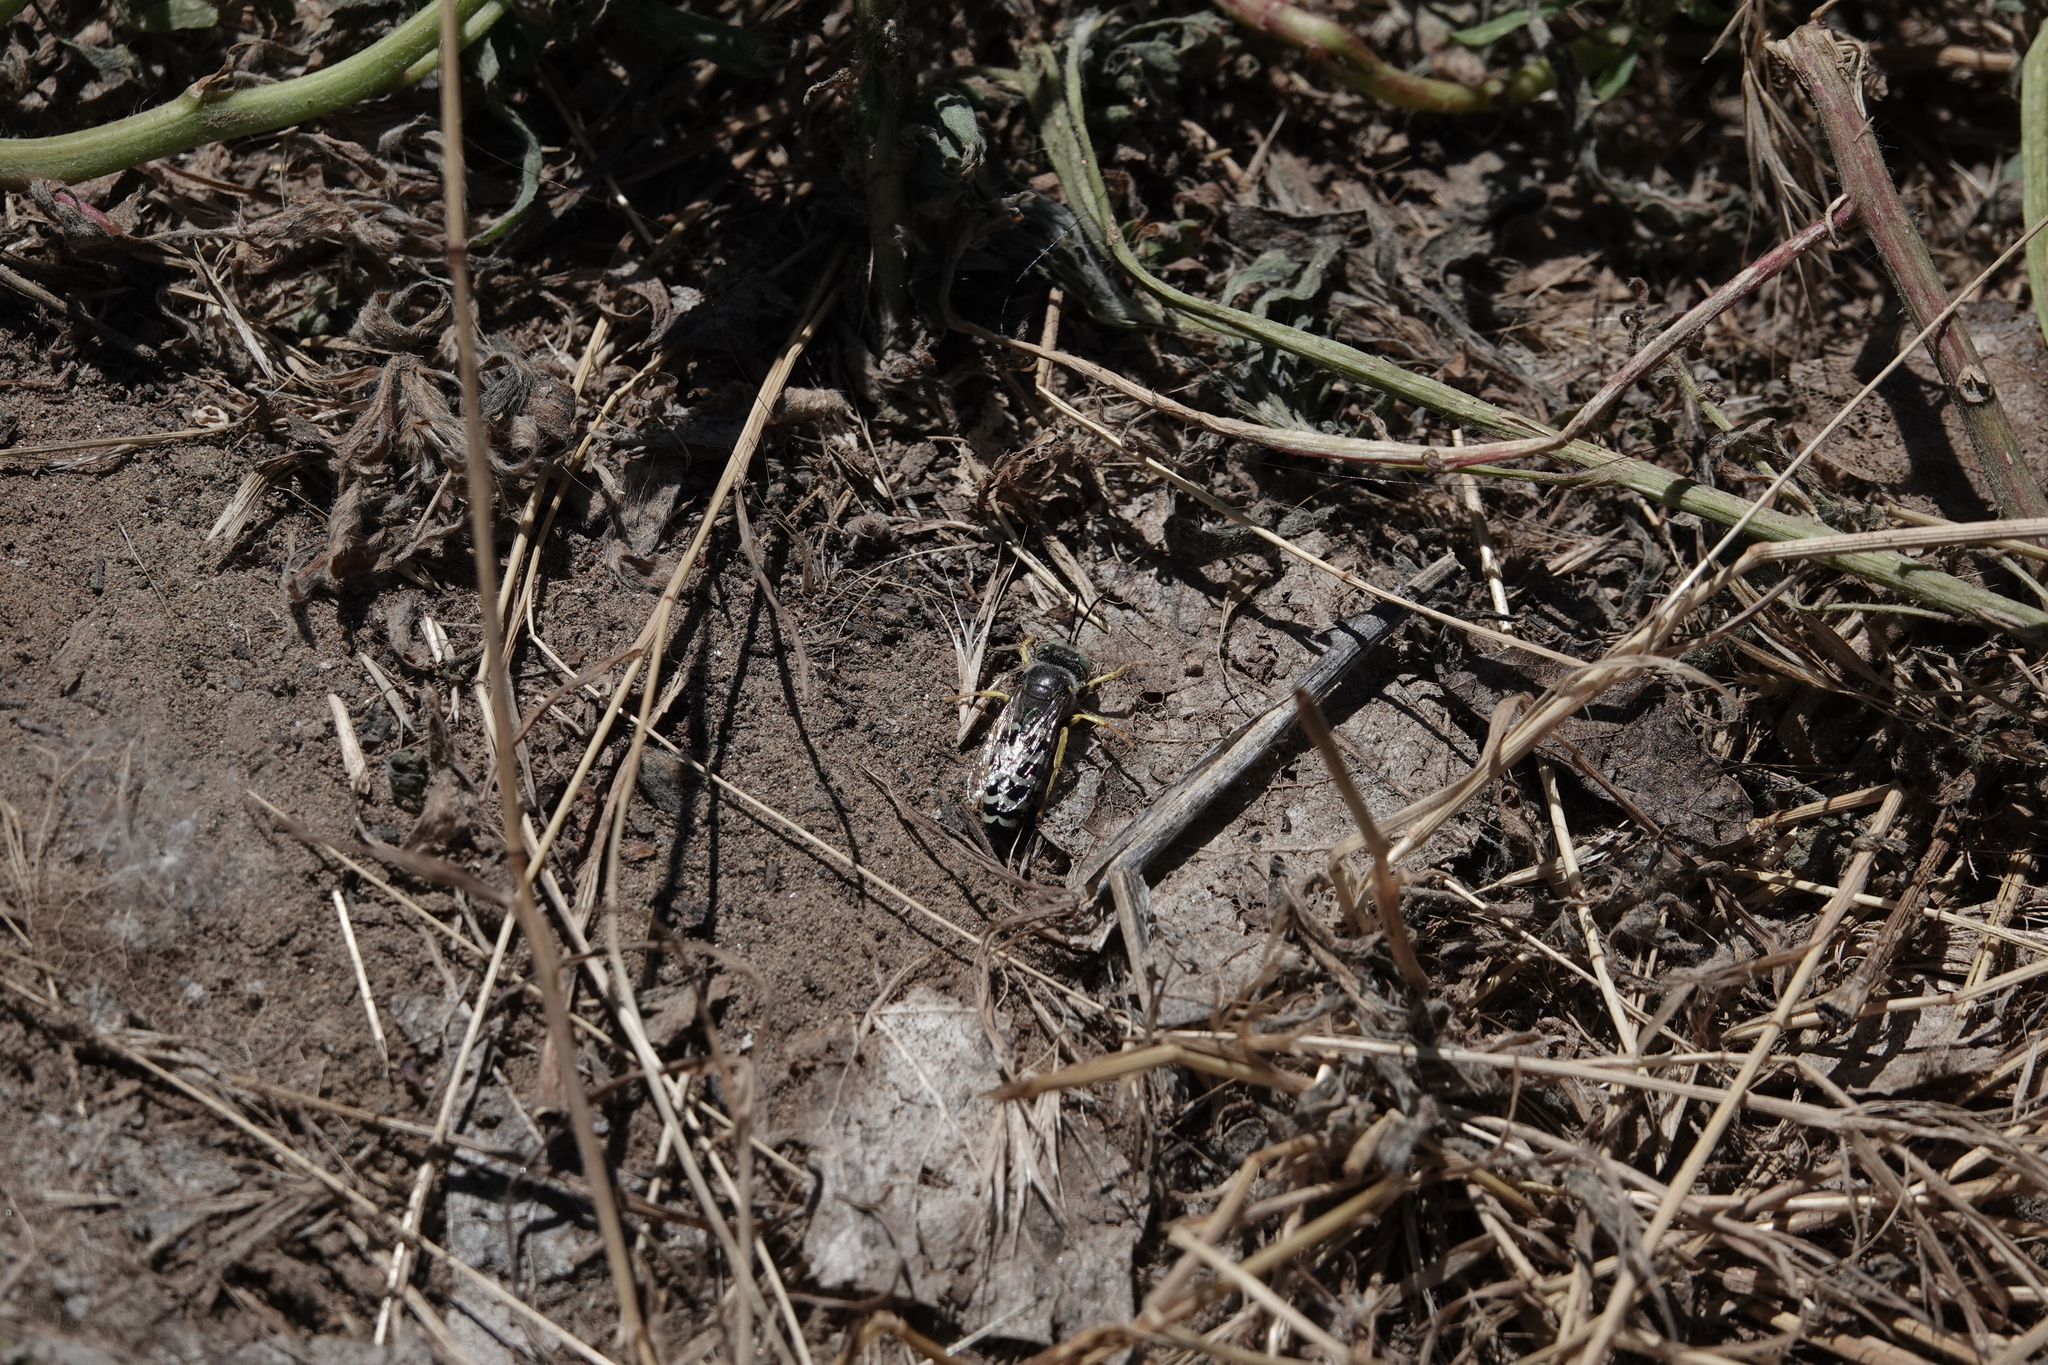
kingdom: Animalia
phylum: Chordata
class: Aves
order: Passeriformes
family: Corvidae
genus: Pica
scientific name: Pica hudsonia
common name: Black-billed magpie
